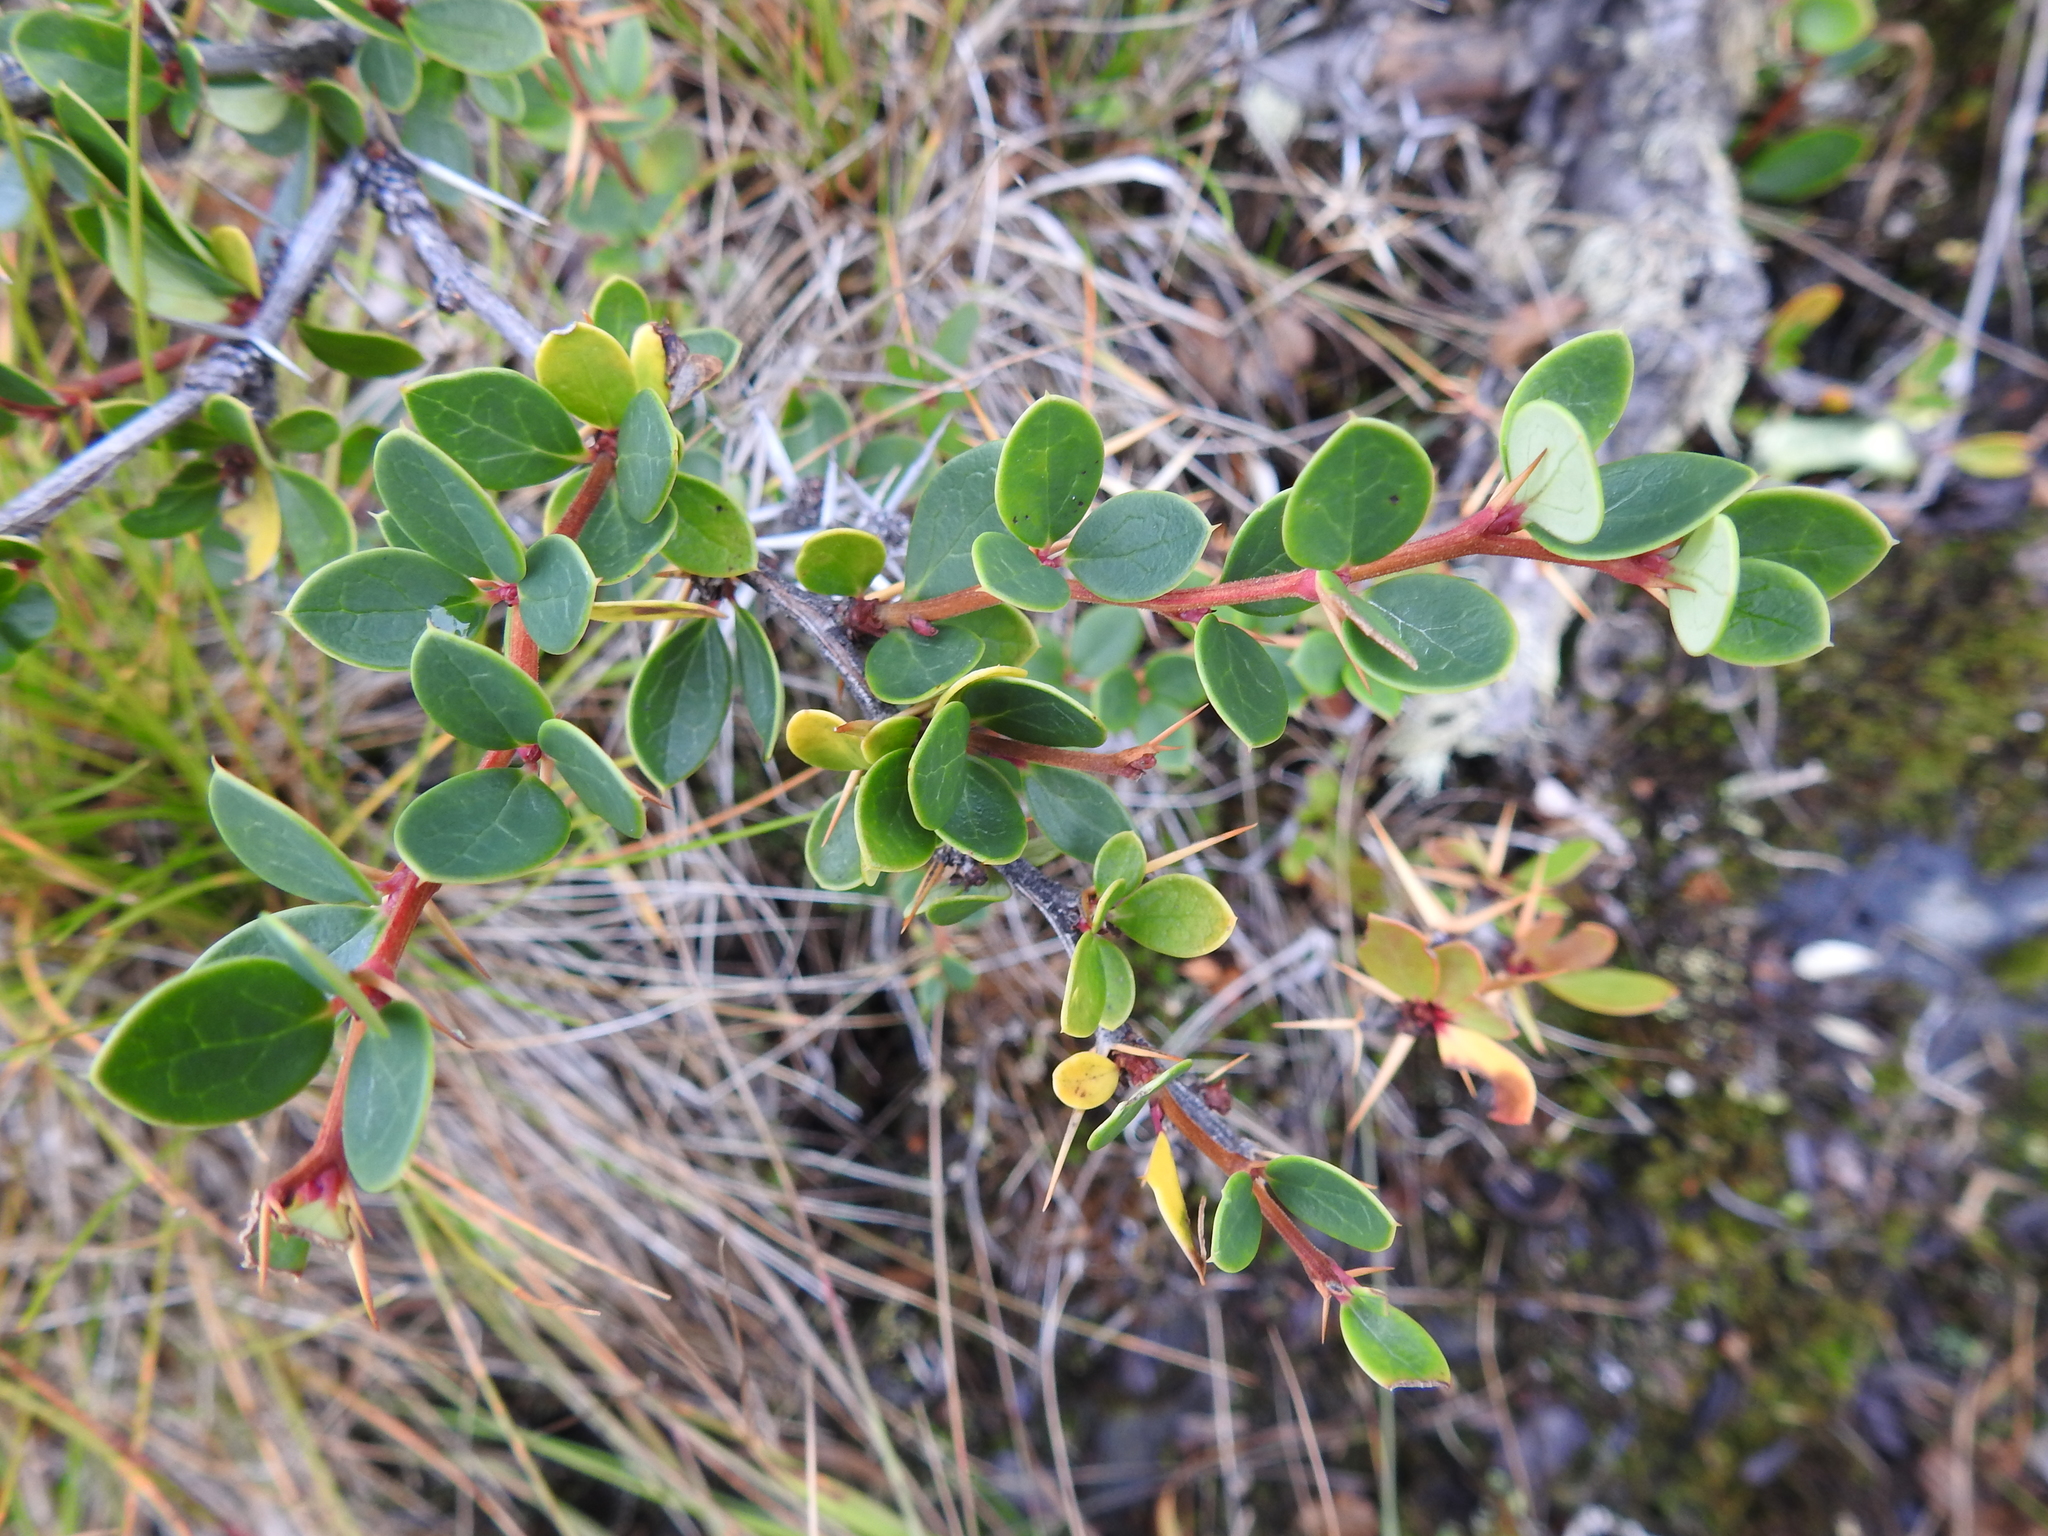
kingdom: Plantae
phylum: Tracheophyta
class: Magnoliopsida
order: Ranunculales
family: Berberidaceae
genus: Berberis
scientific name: Berberis microphylla
